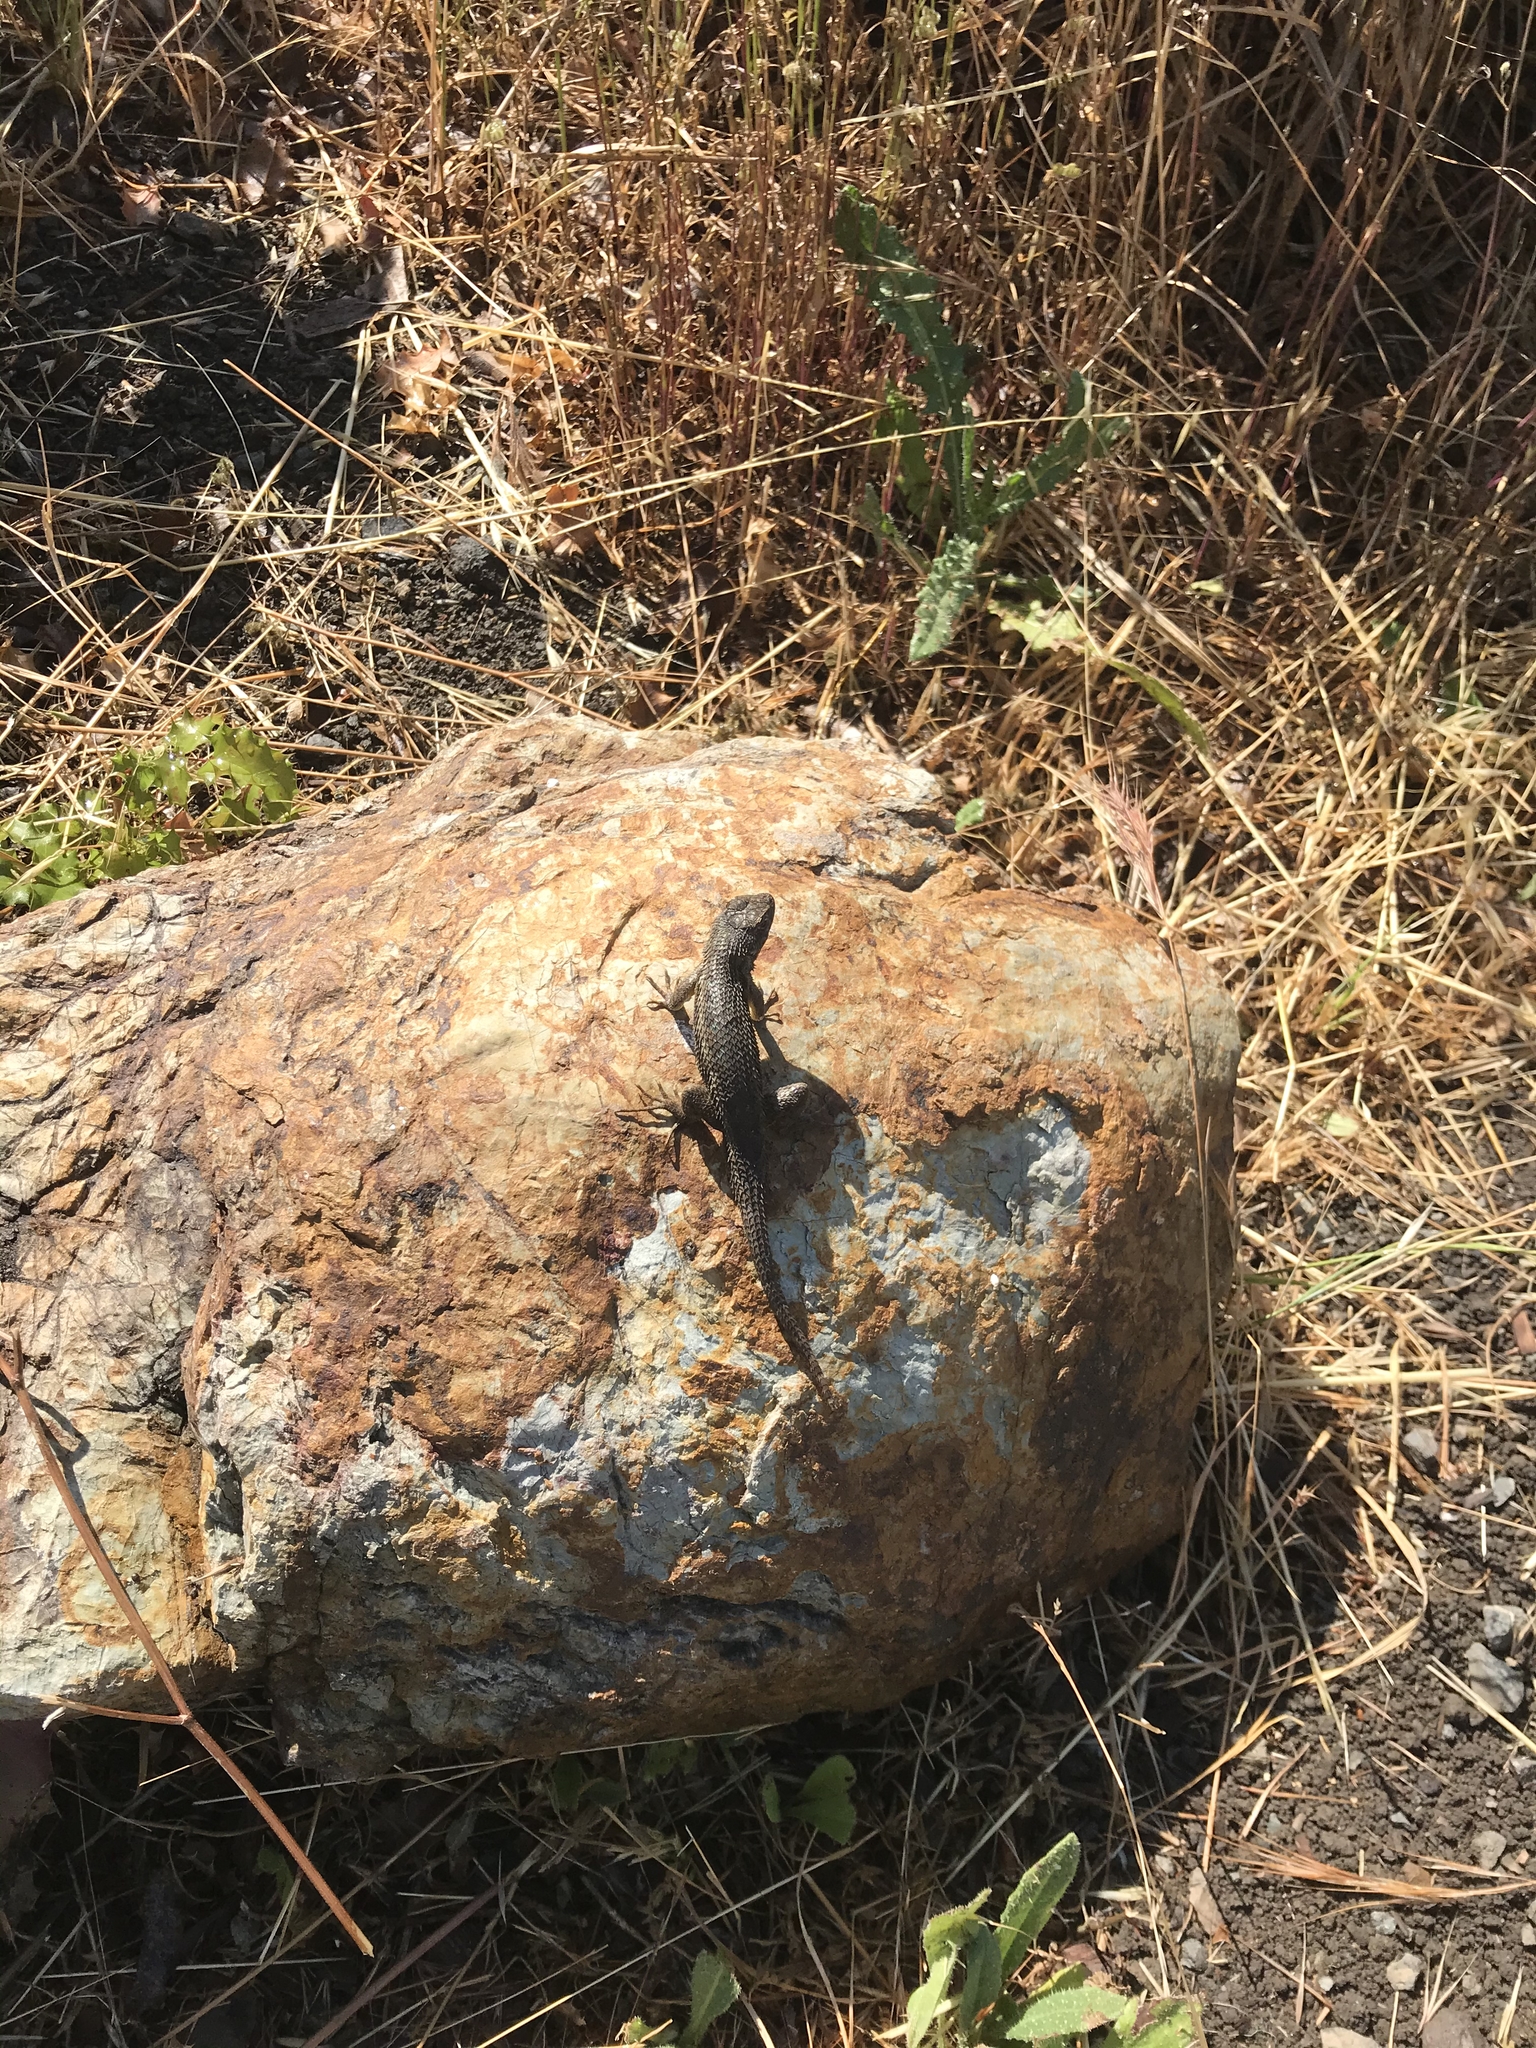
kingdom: Animalia
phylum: Chordata
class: Squamata
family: Phrynosomatidae
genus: Sceloporus
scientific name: Sceloporus occidentalis
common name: Western fence lizard
